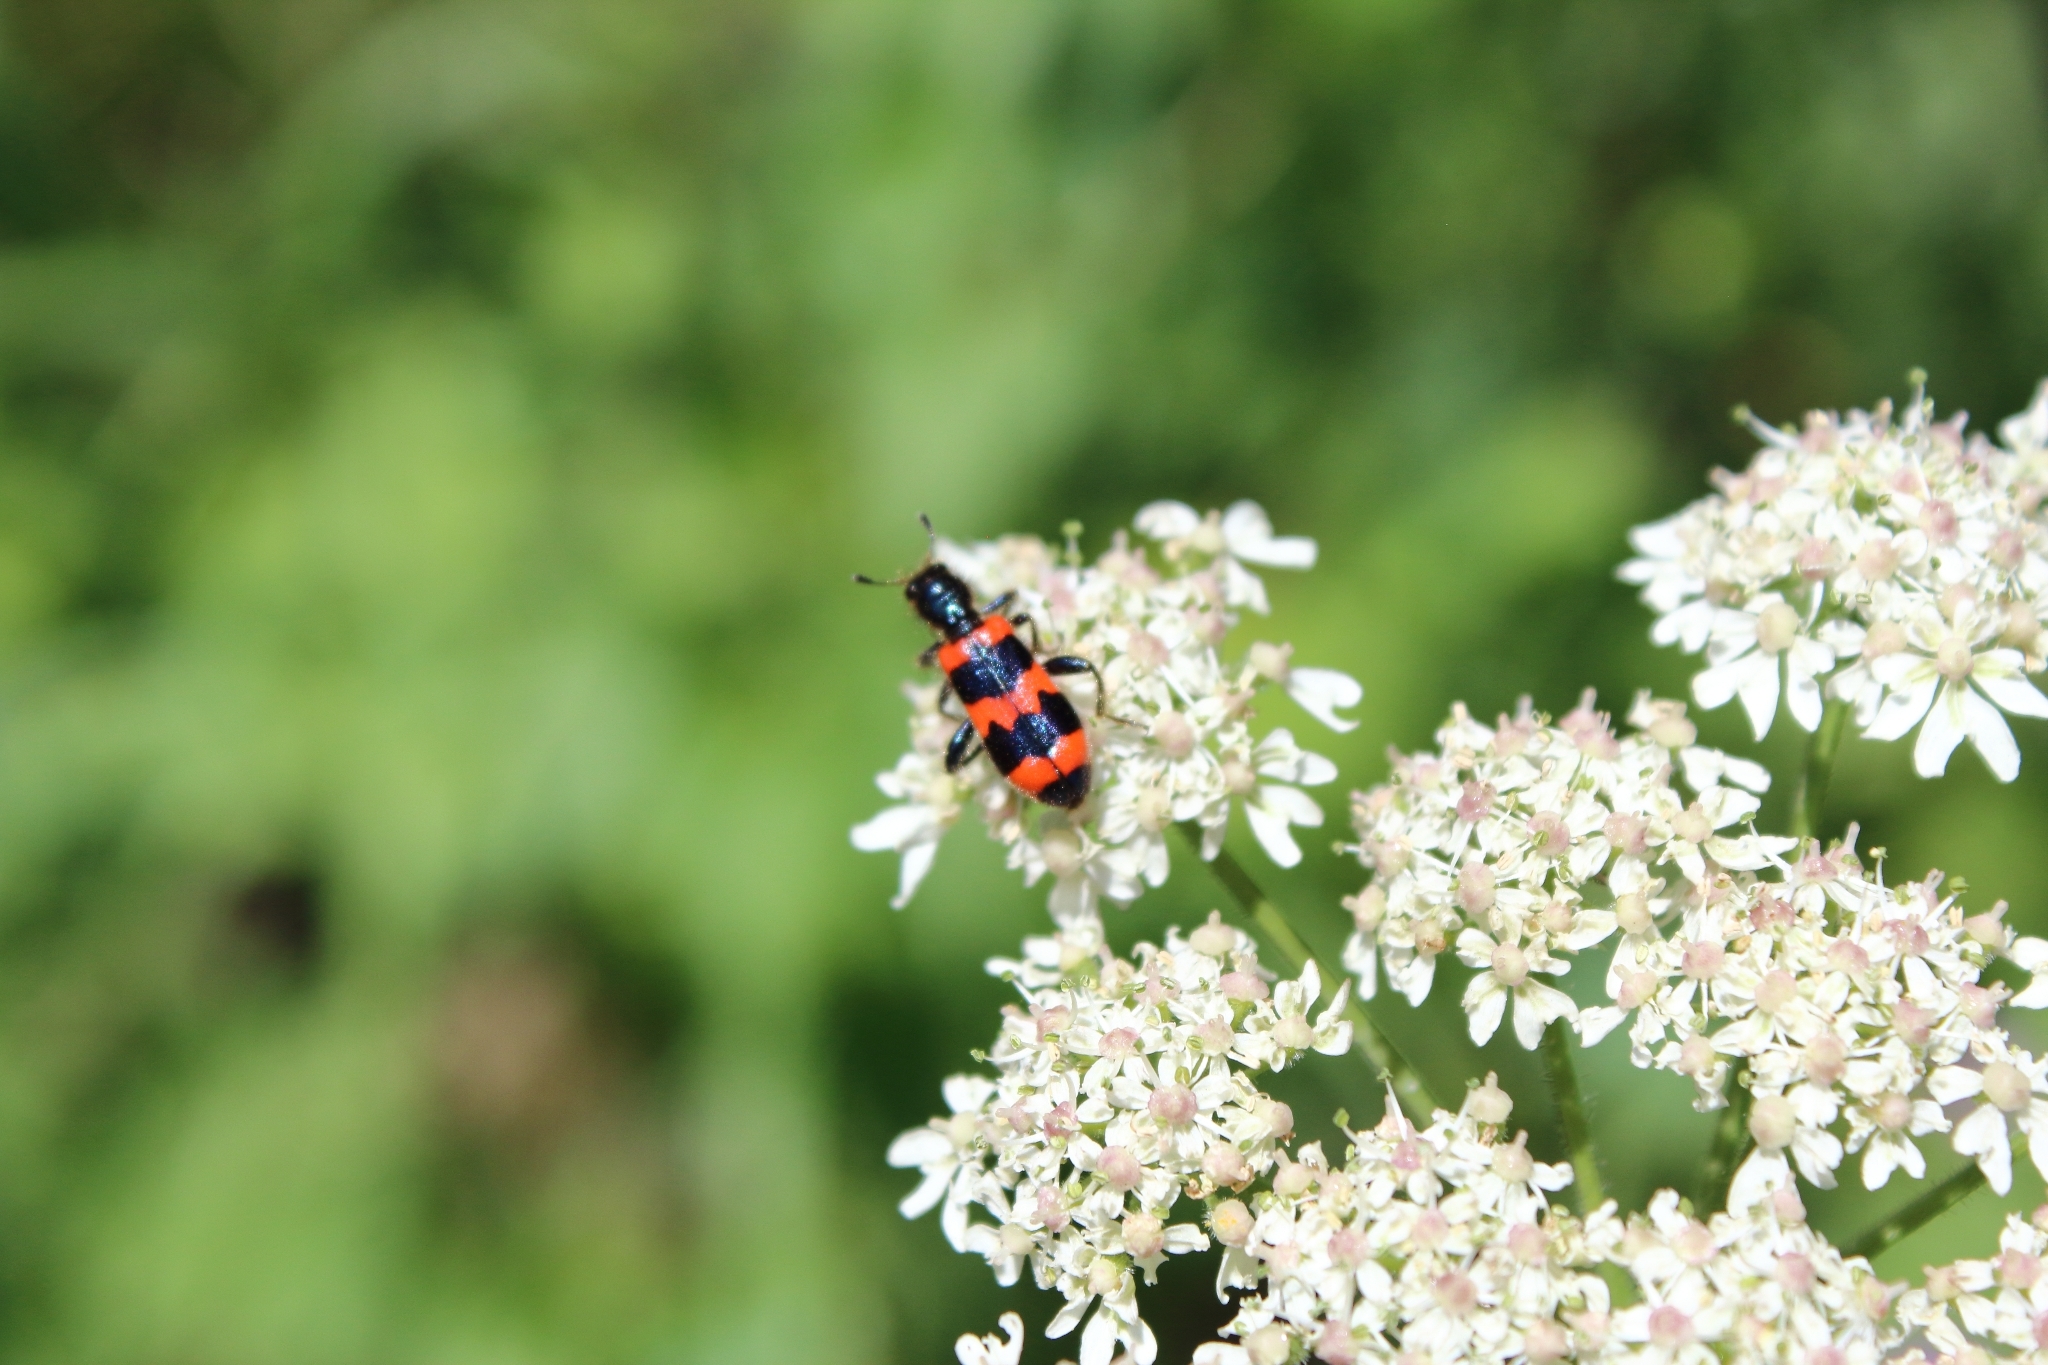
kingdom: Animalia
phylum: Arthropoda
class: Insecta
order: Coleoptera
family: Cleridae
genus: Trichodes
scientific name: Trichodes apiarius
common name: Bee-eating beetle
